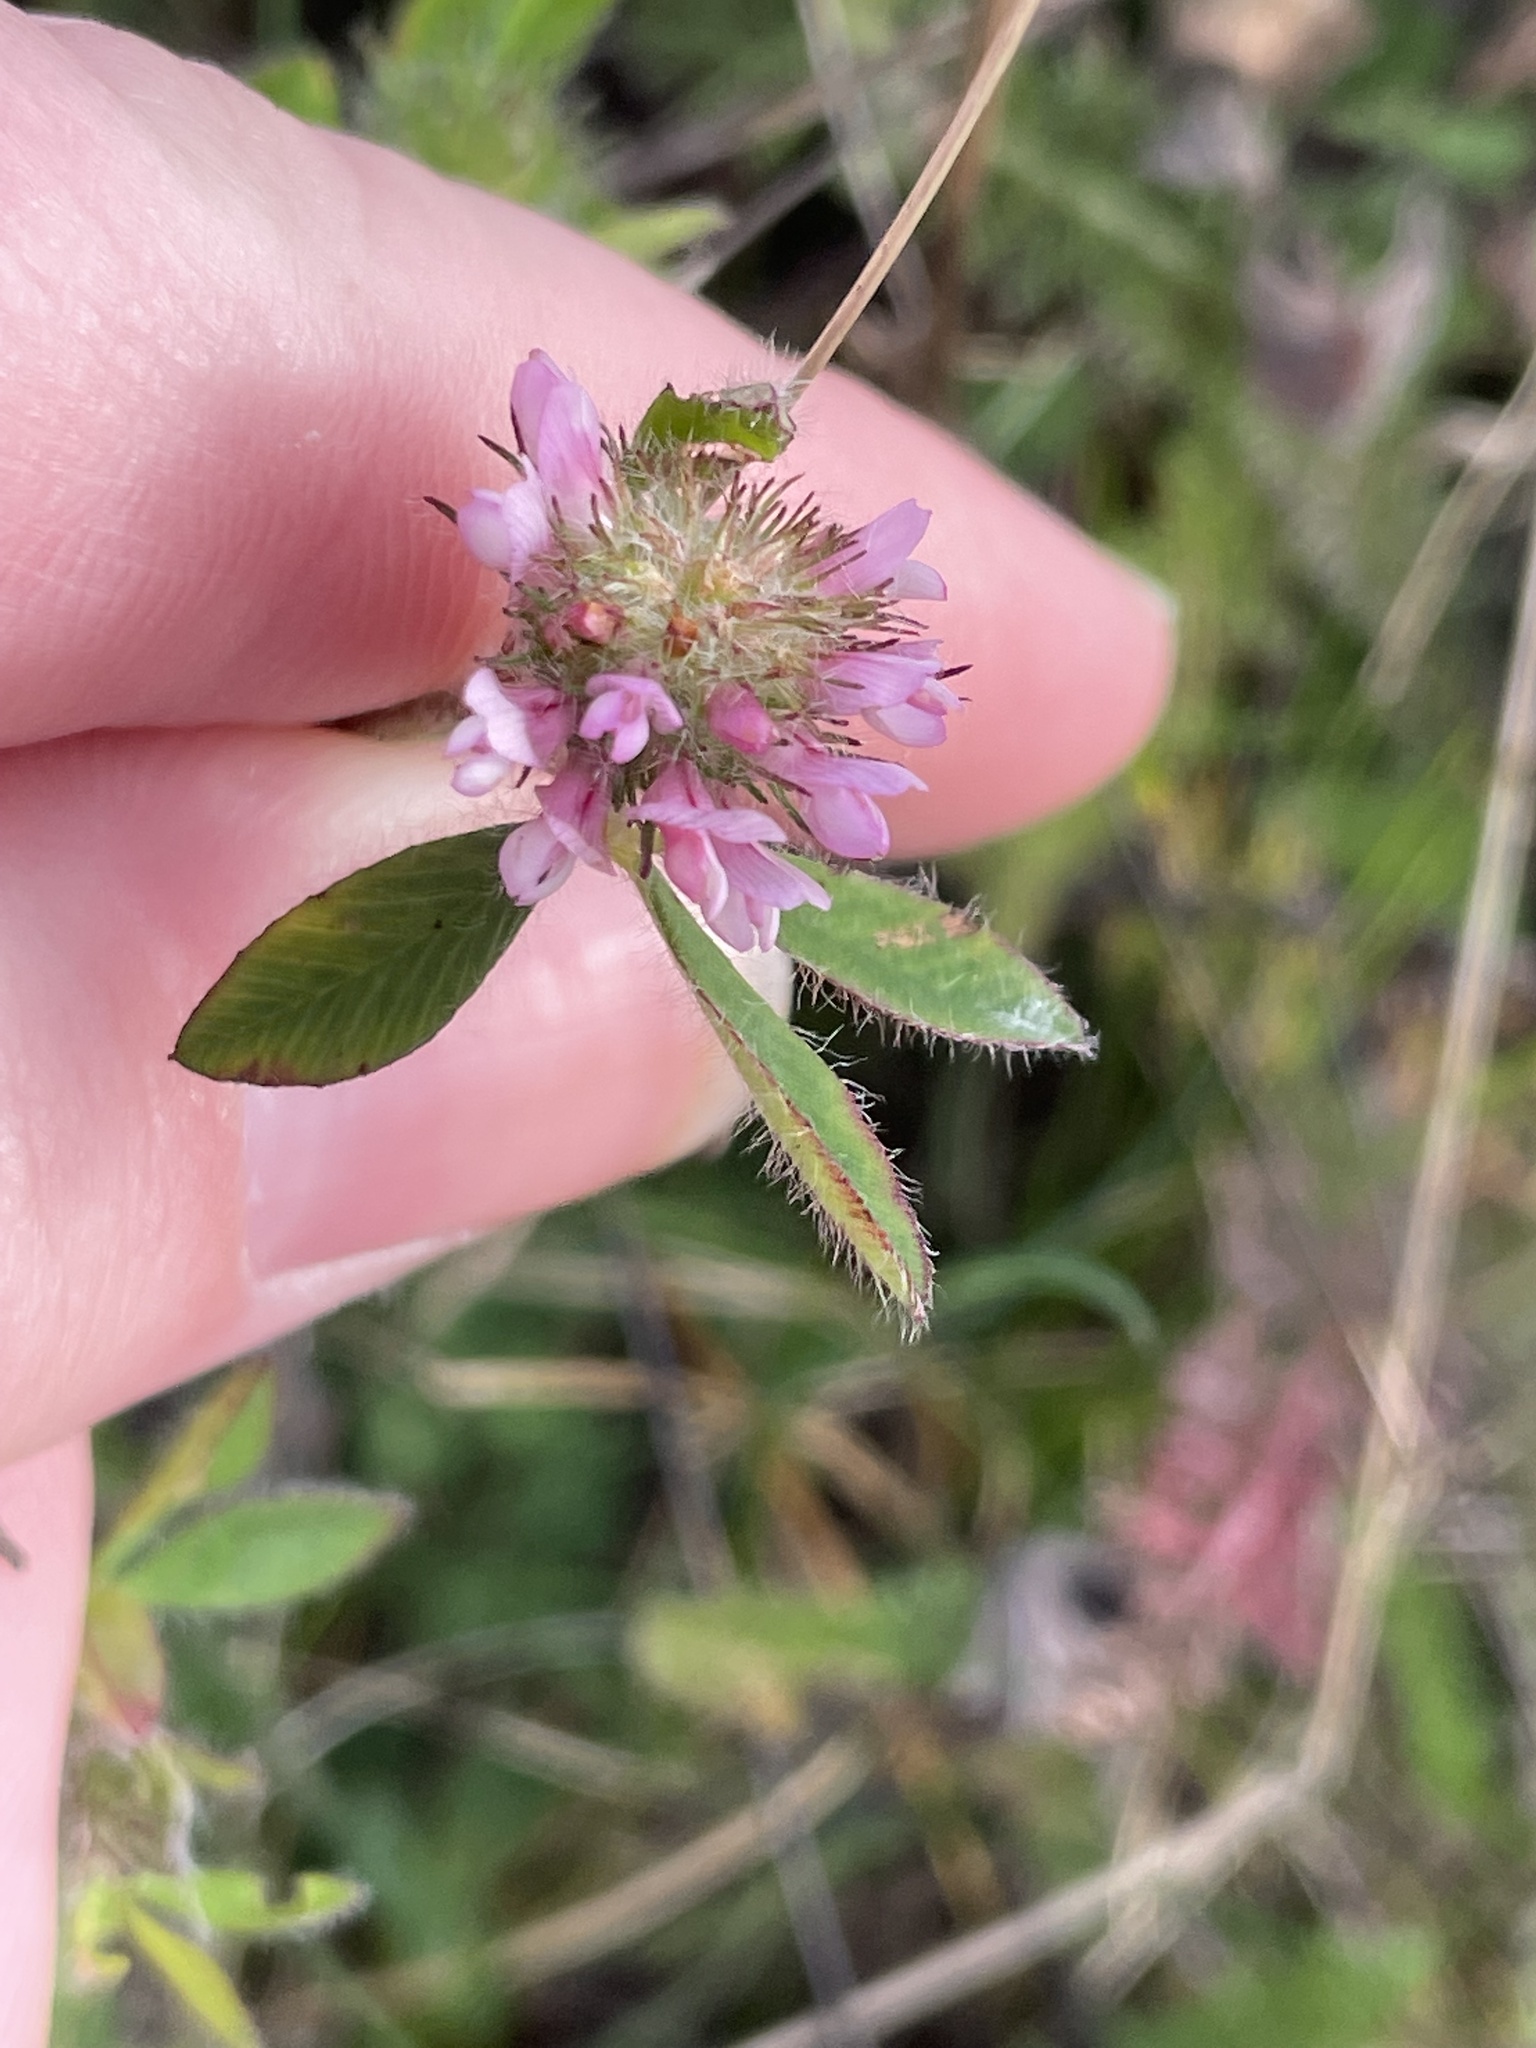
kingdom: Plantae
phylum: Tracheophyta
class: Magnoliopsida
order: Fabales
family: Fabaceae
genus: Trifolium
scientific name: Trifolium pratense
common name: Red clover
